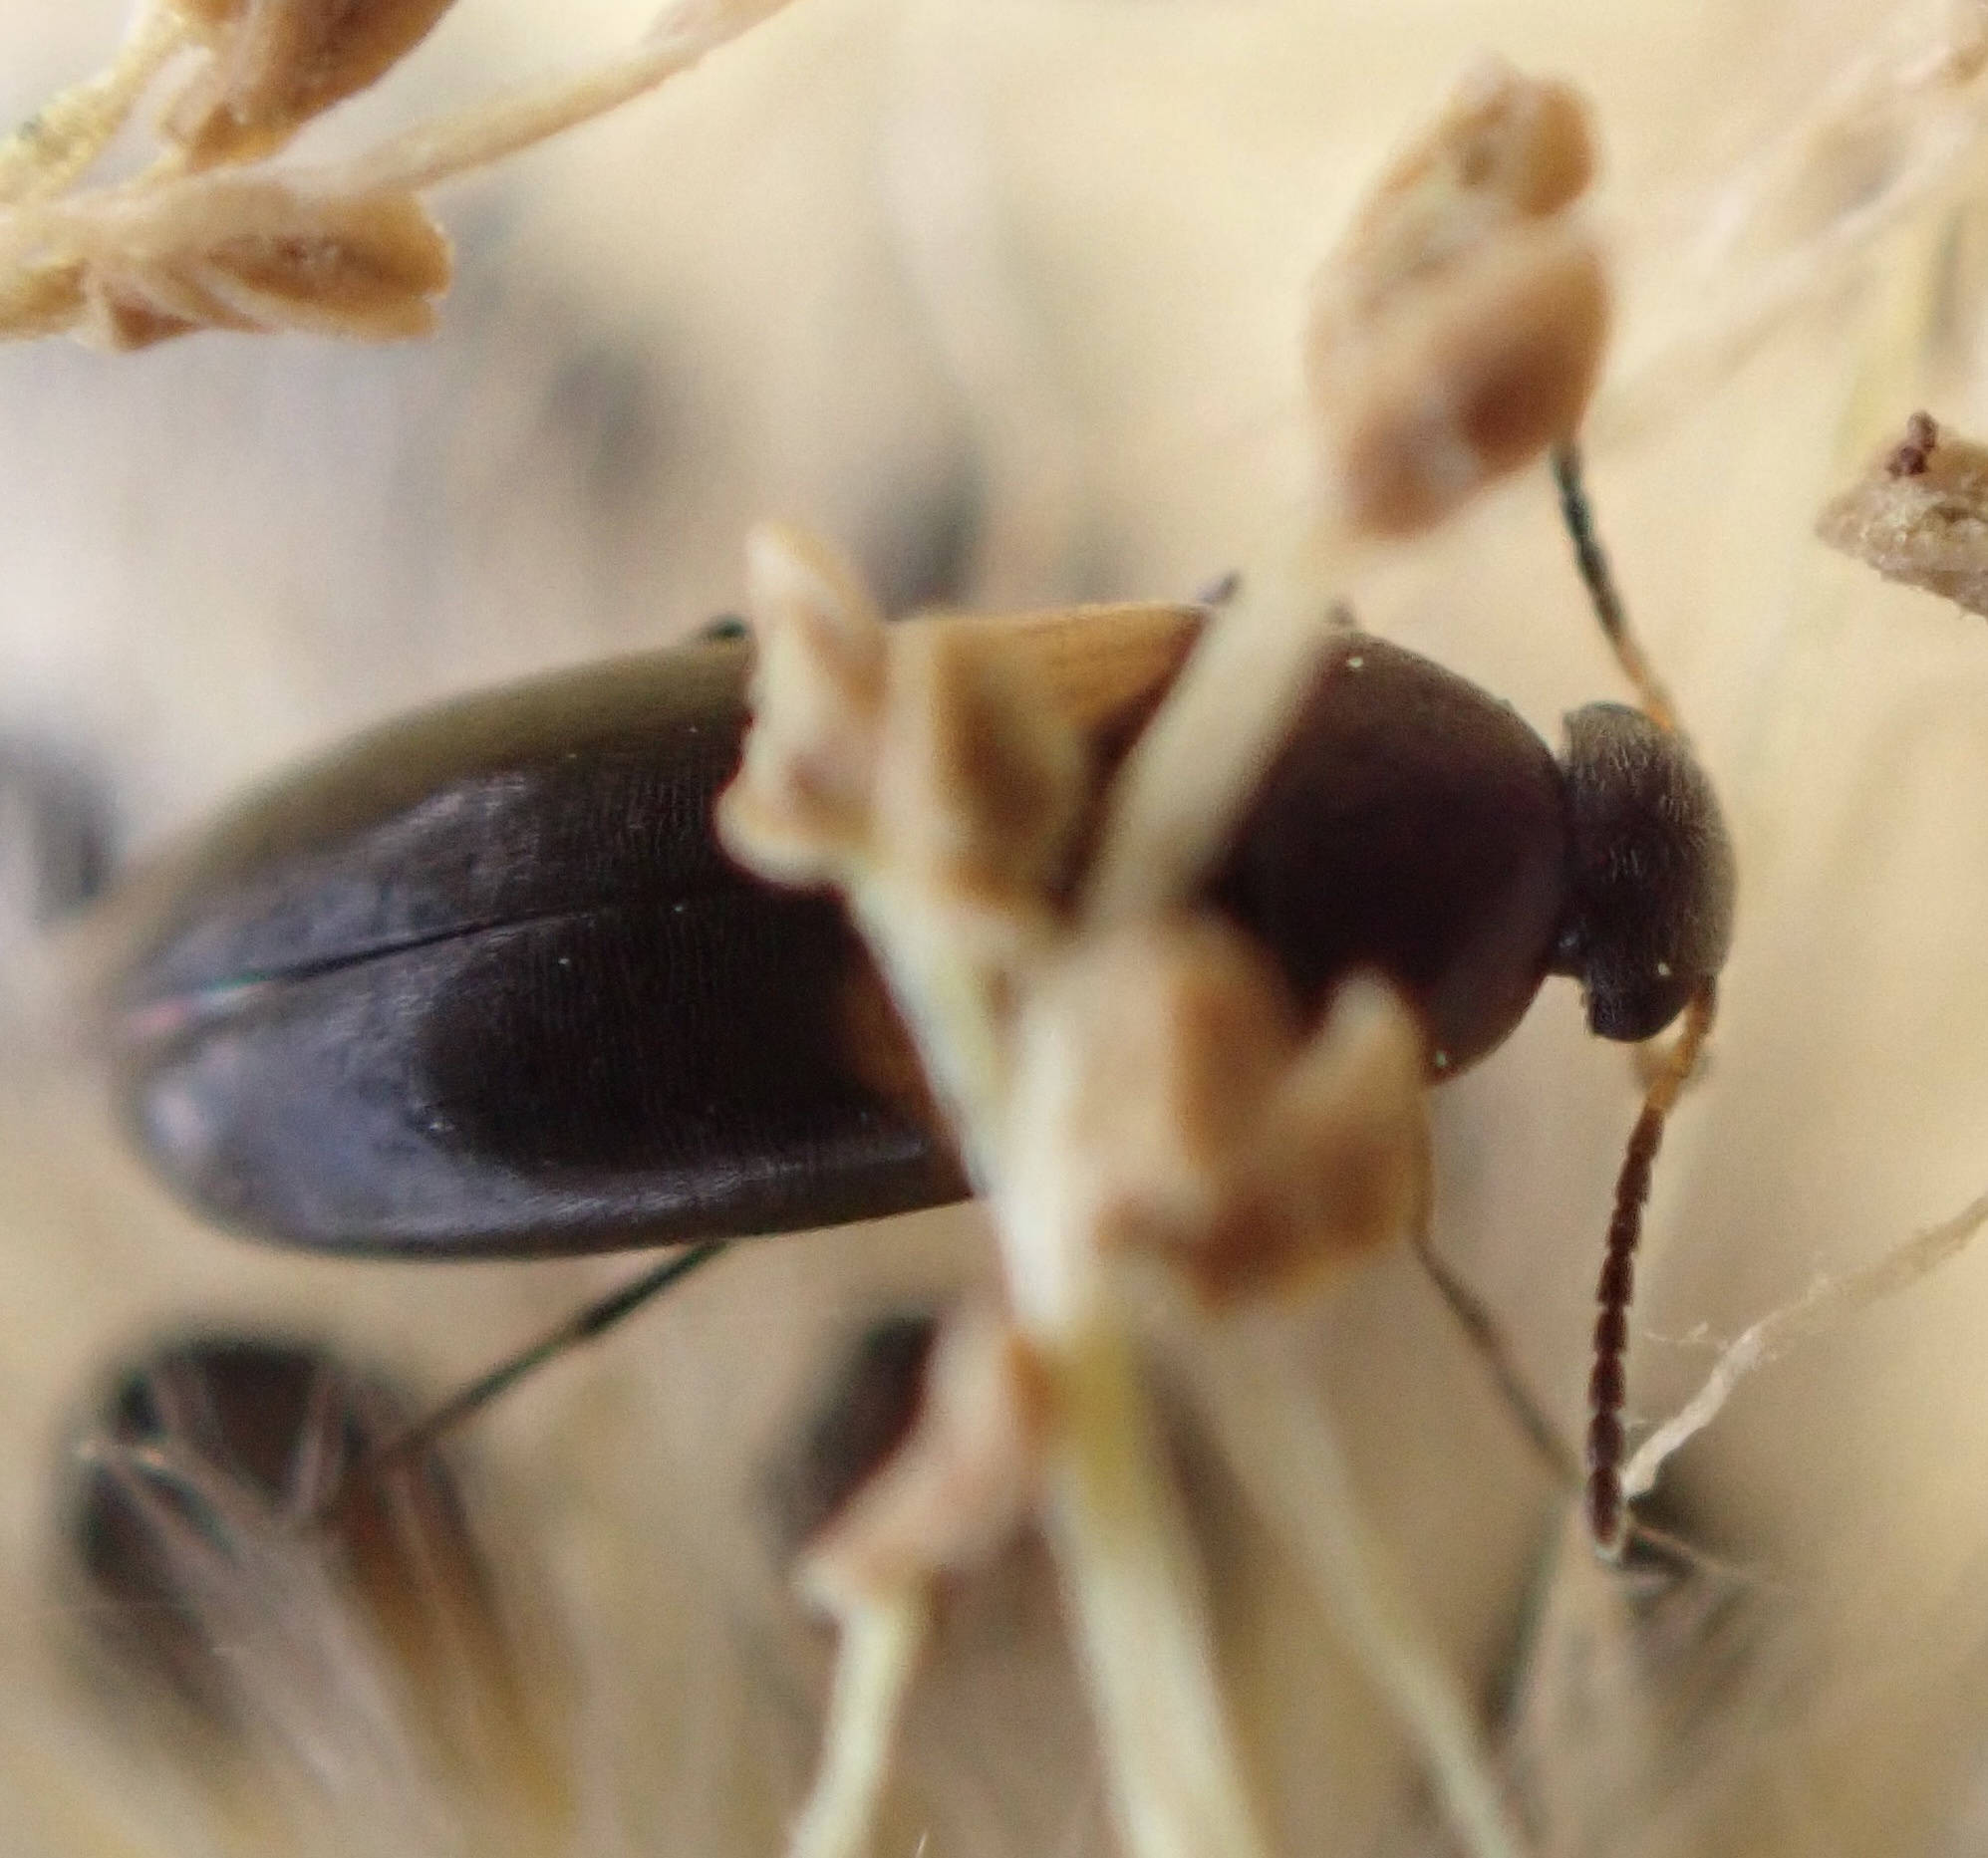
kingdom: Animalia
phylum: Arthropoda
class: Insecta
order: Coleoptera
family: Scraptiidae
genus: Anaspis
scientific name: Anaspis fasciata
